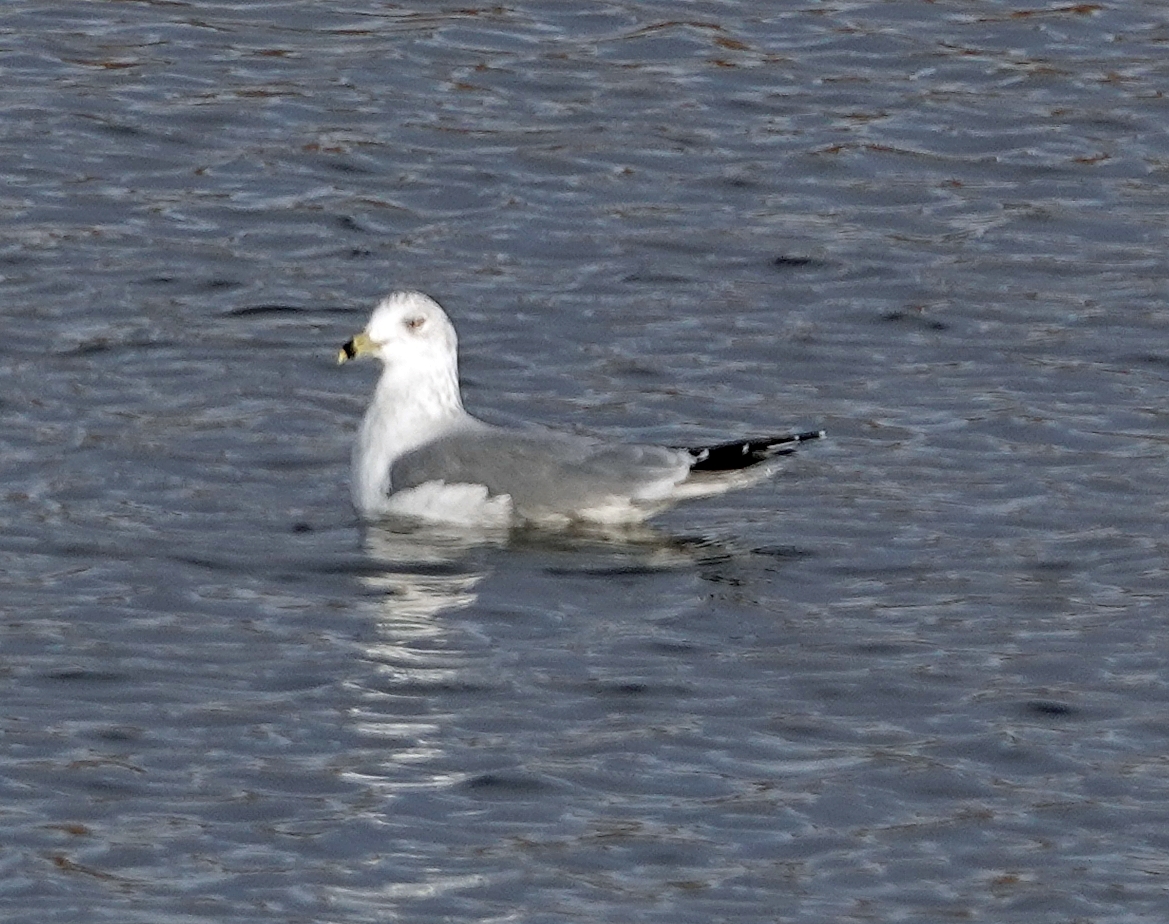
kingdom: Animalia
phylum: Chordata
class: Aves
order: Charadriiformes
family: Laridae
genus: Larus
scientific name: Larus delawarensis
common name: Ring-billed gull
